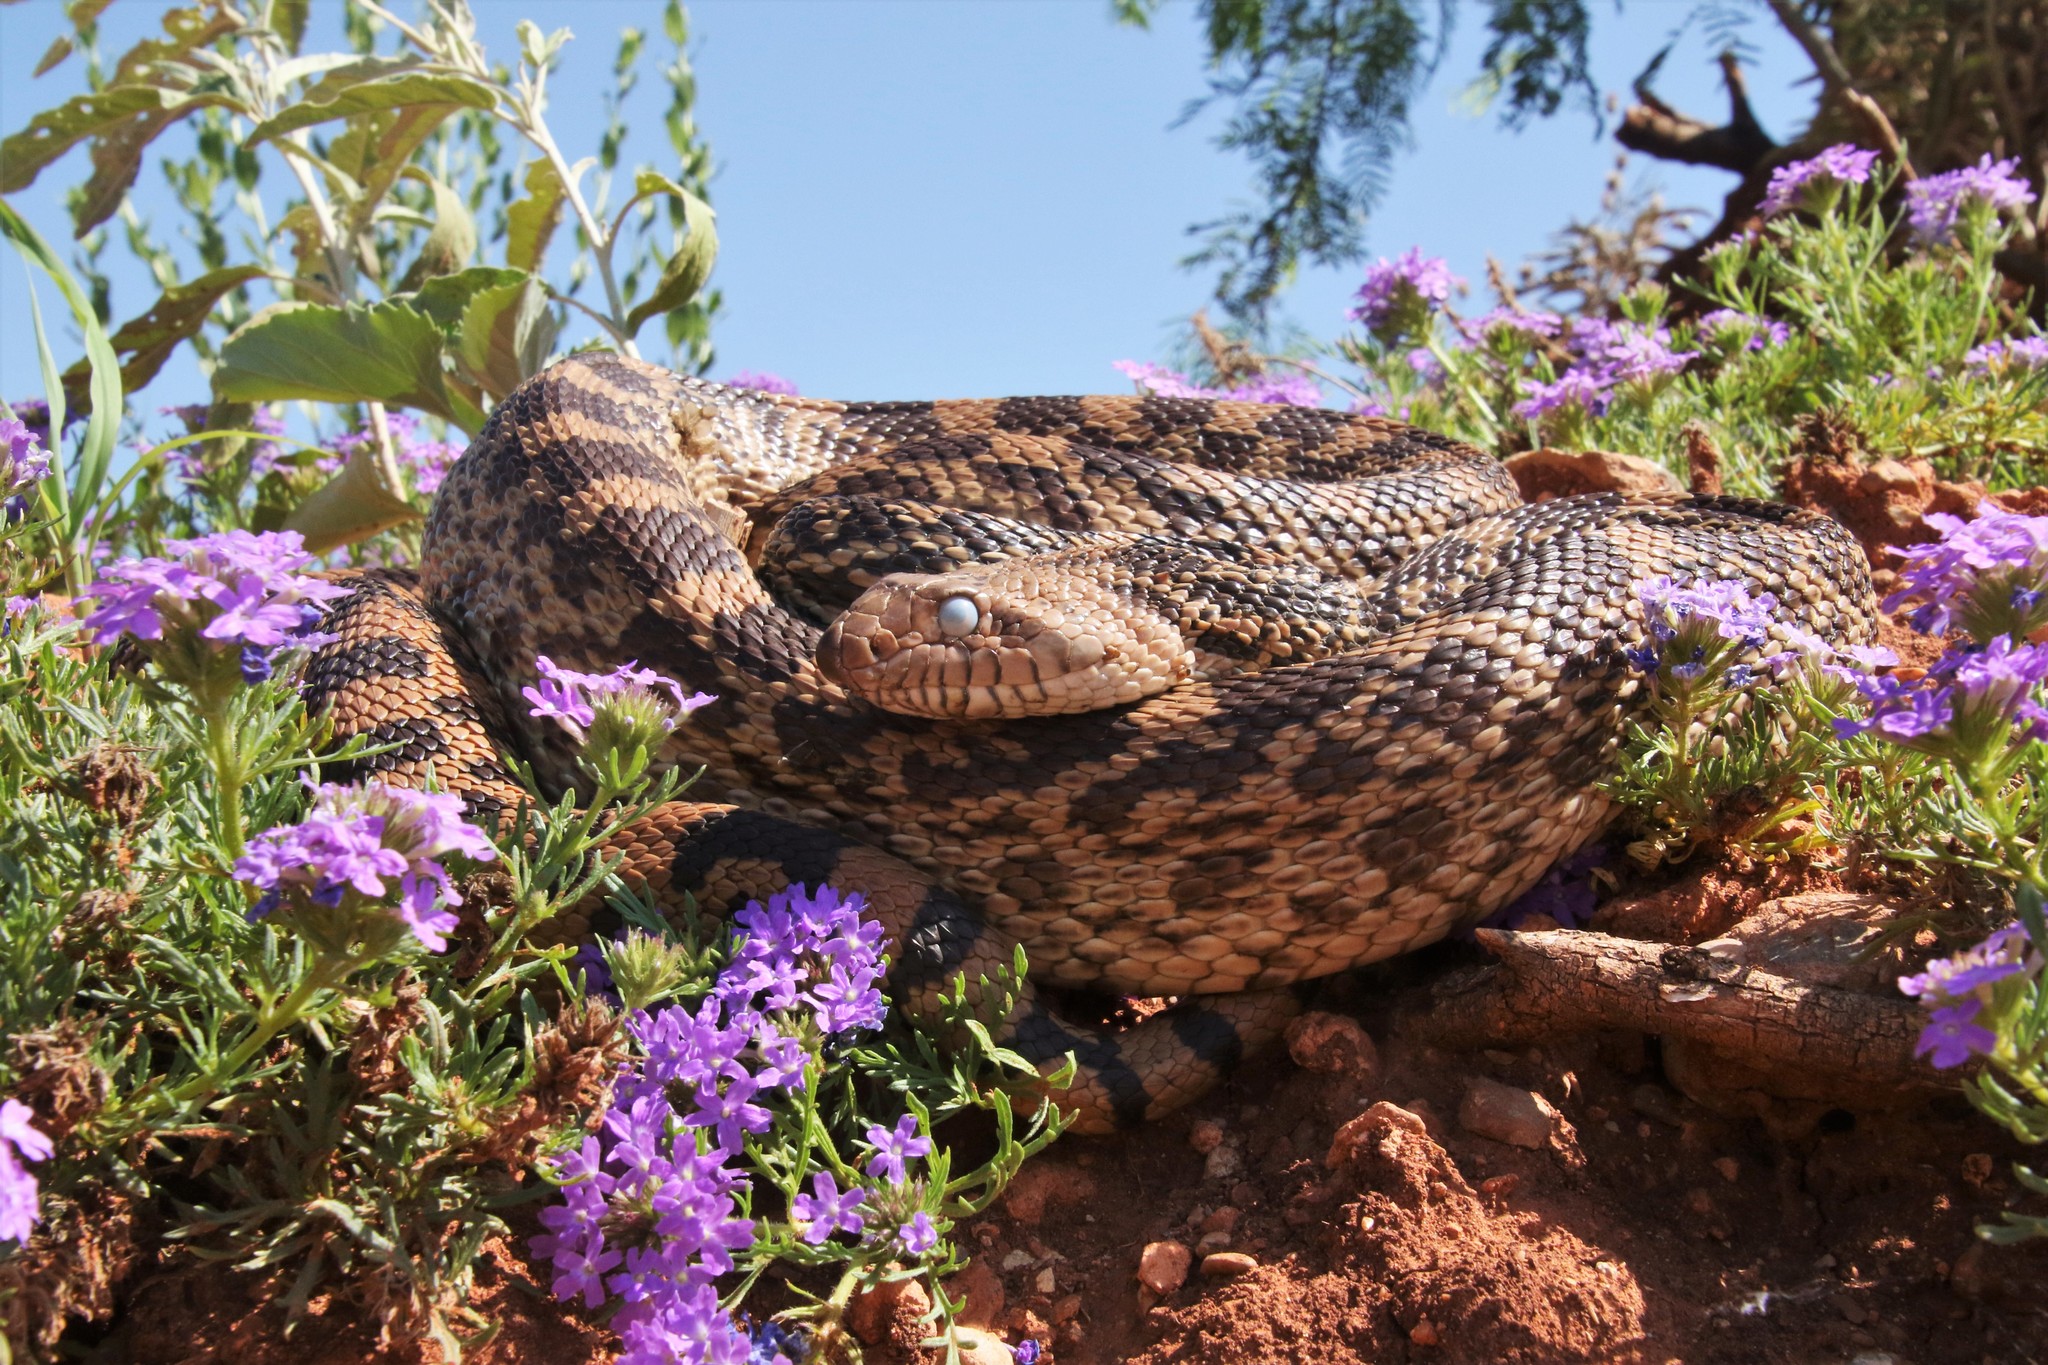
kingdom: Animalia
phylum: Chordata
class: Squamata
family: Colubridae
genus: Pituophis
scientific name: Pituophis catenifer
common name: Gopher snake
